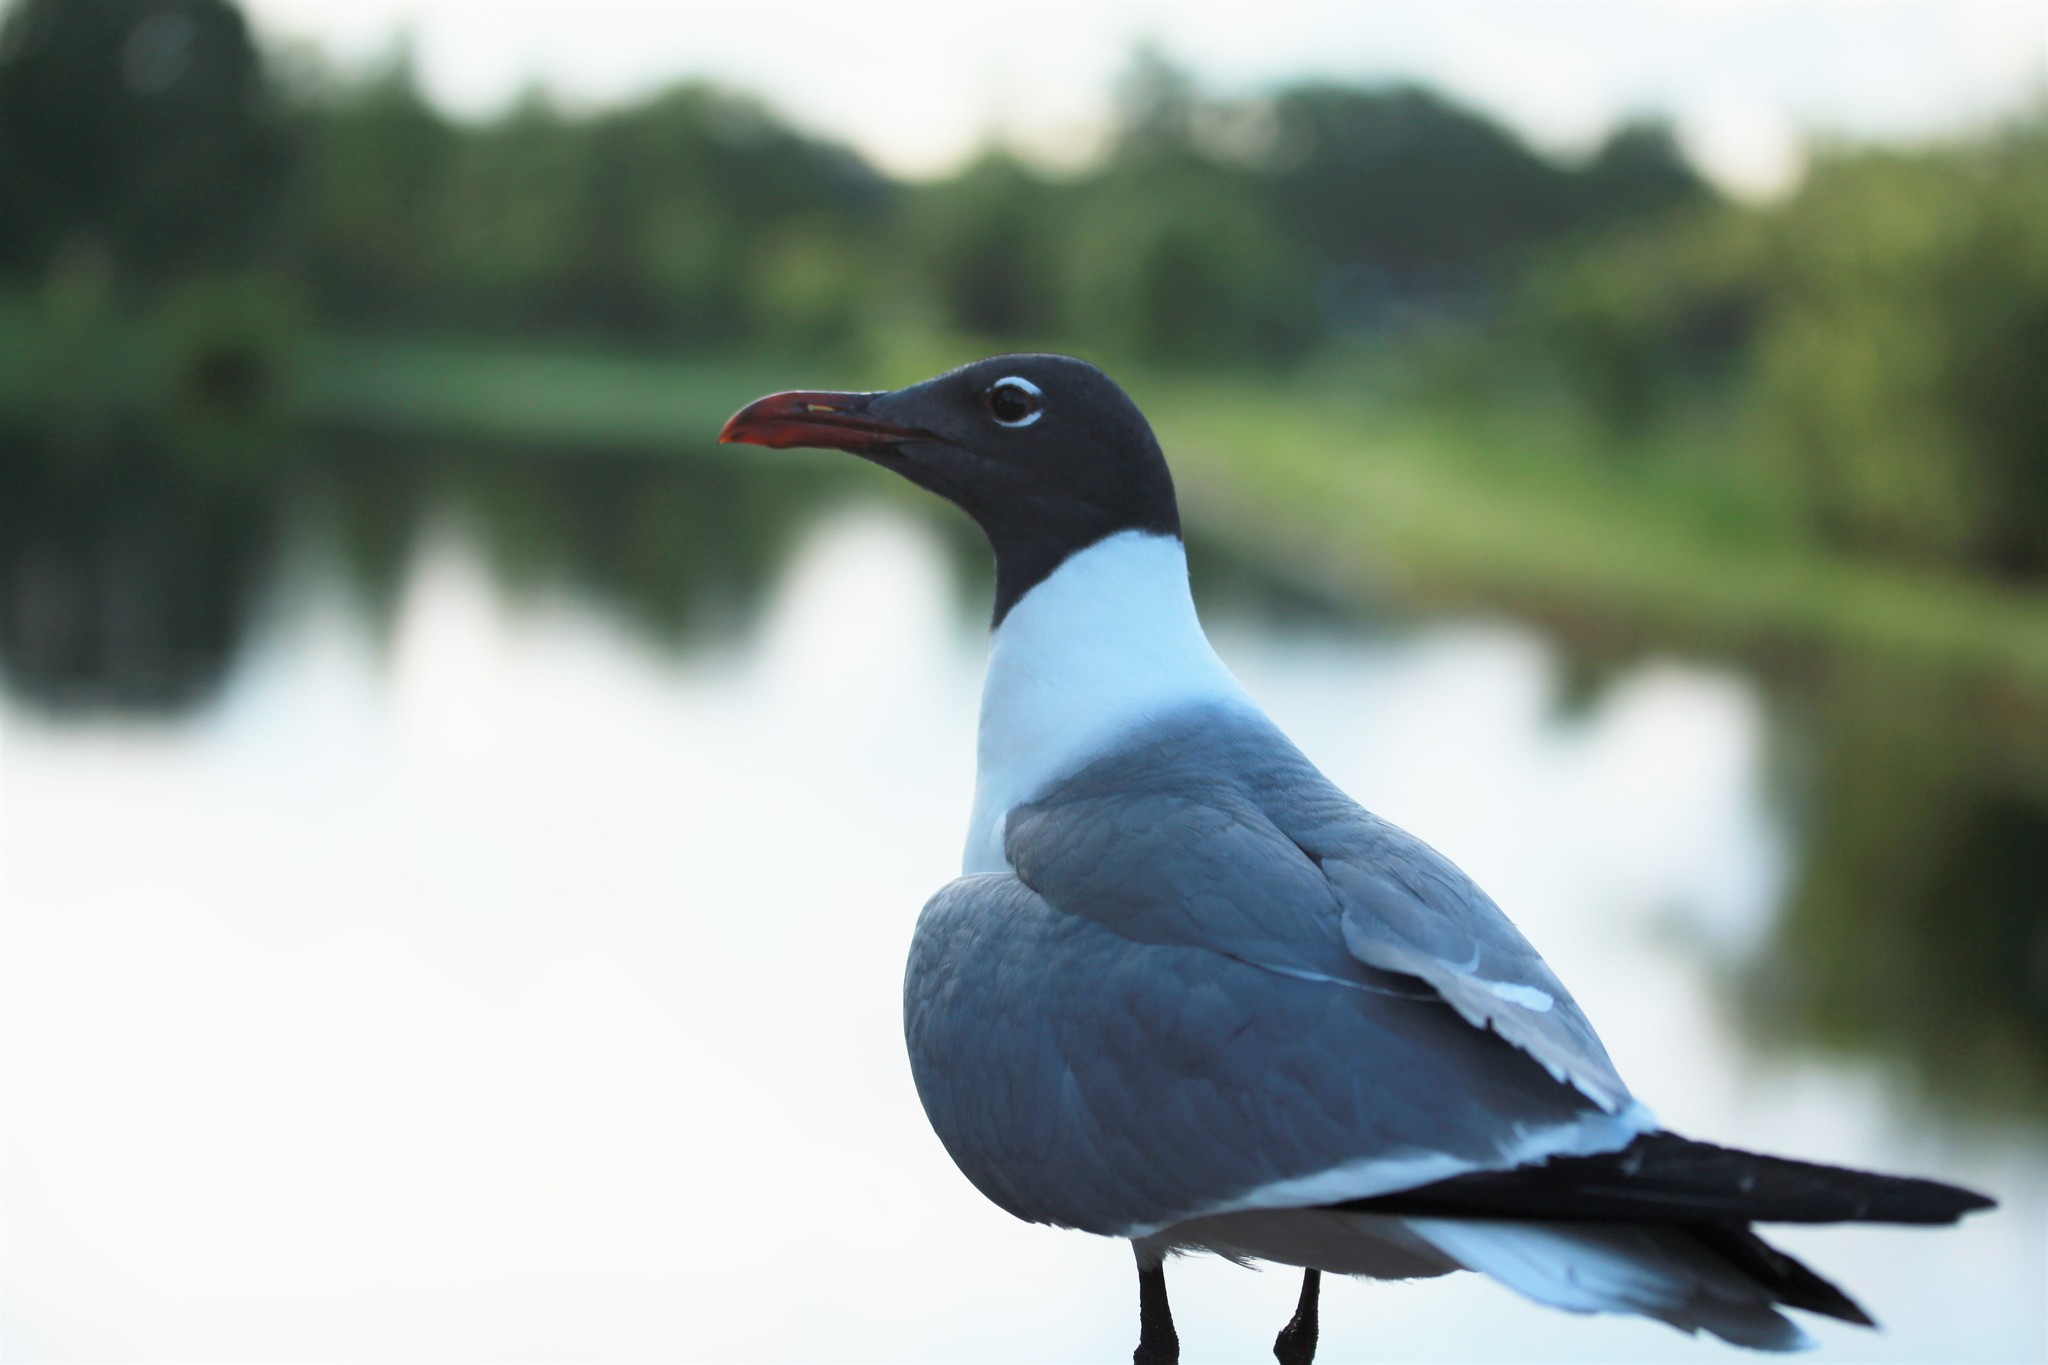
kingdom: Animalia
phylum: Chordata
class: Aves
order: Charadriiformes
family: Laridae
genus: Leucophaeus
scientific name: Leucophaeus atricilla
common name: Laughing gull
